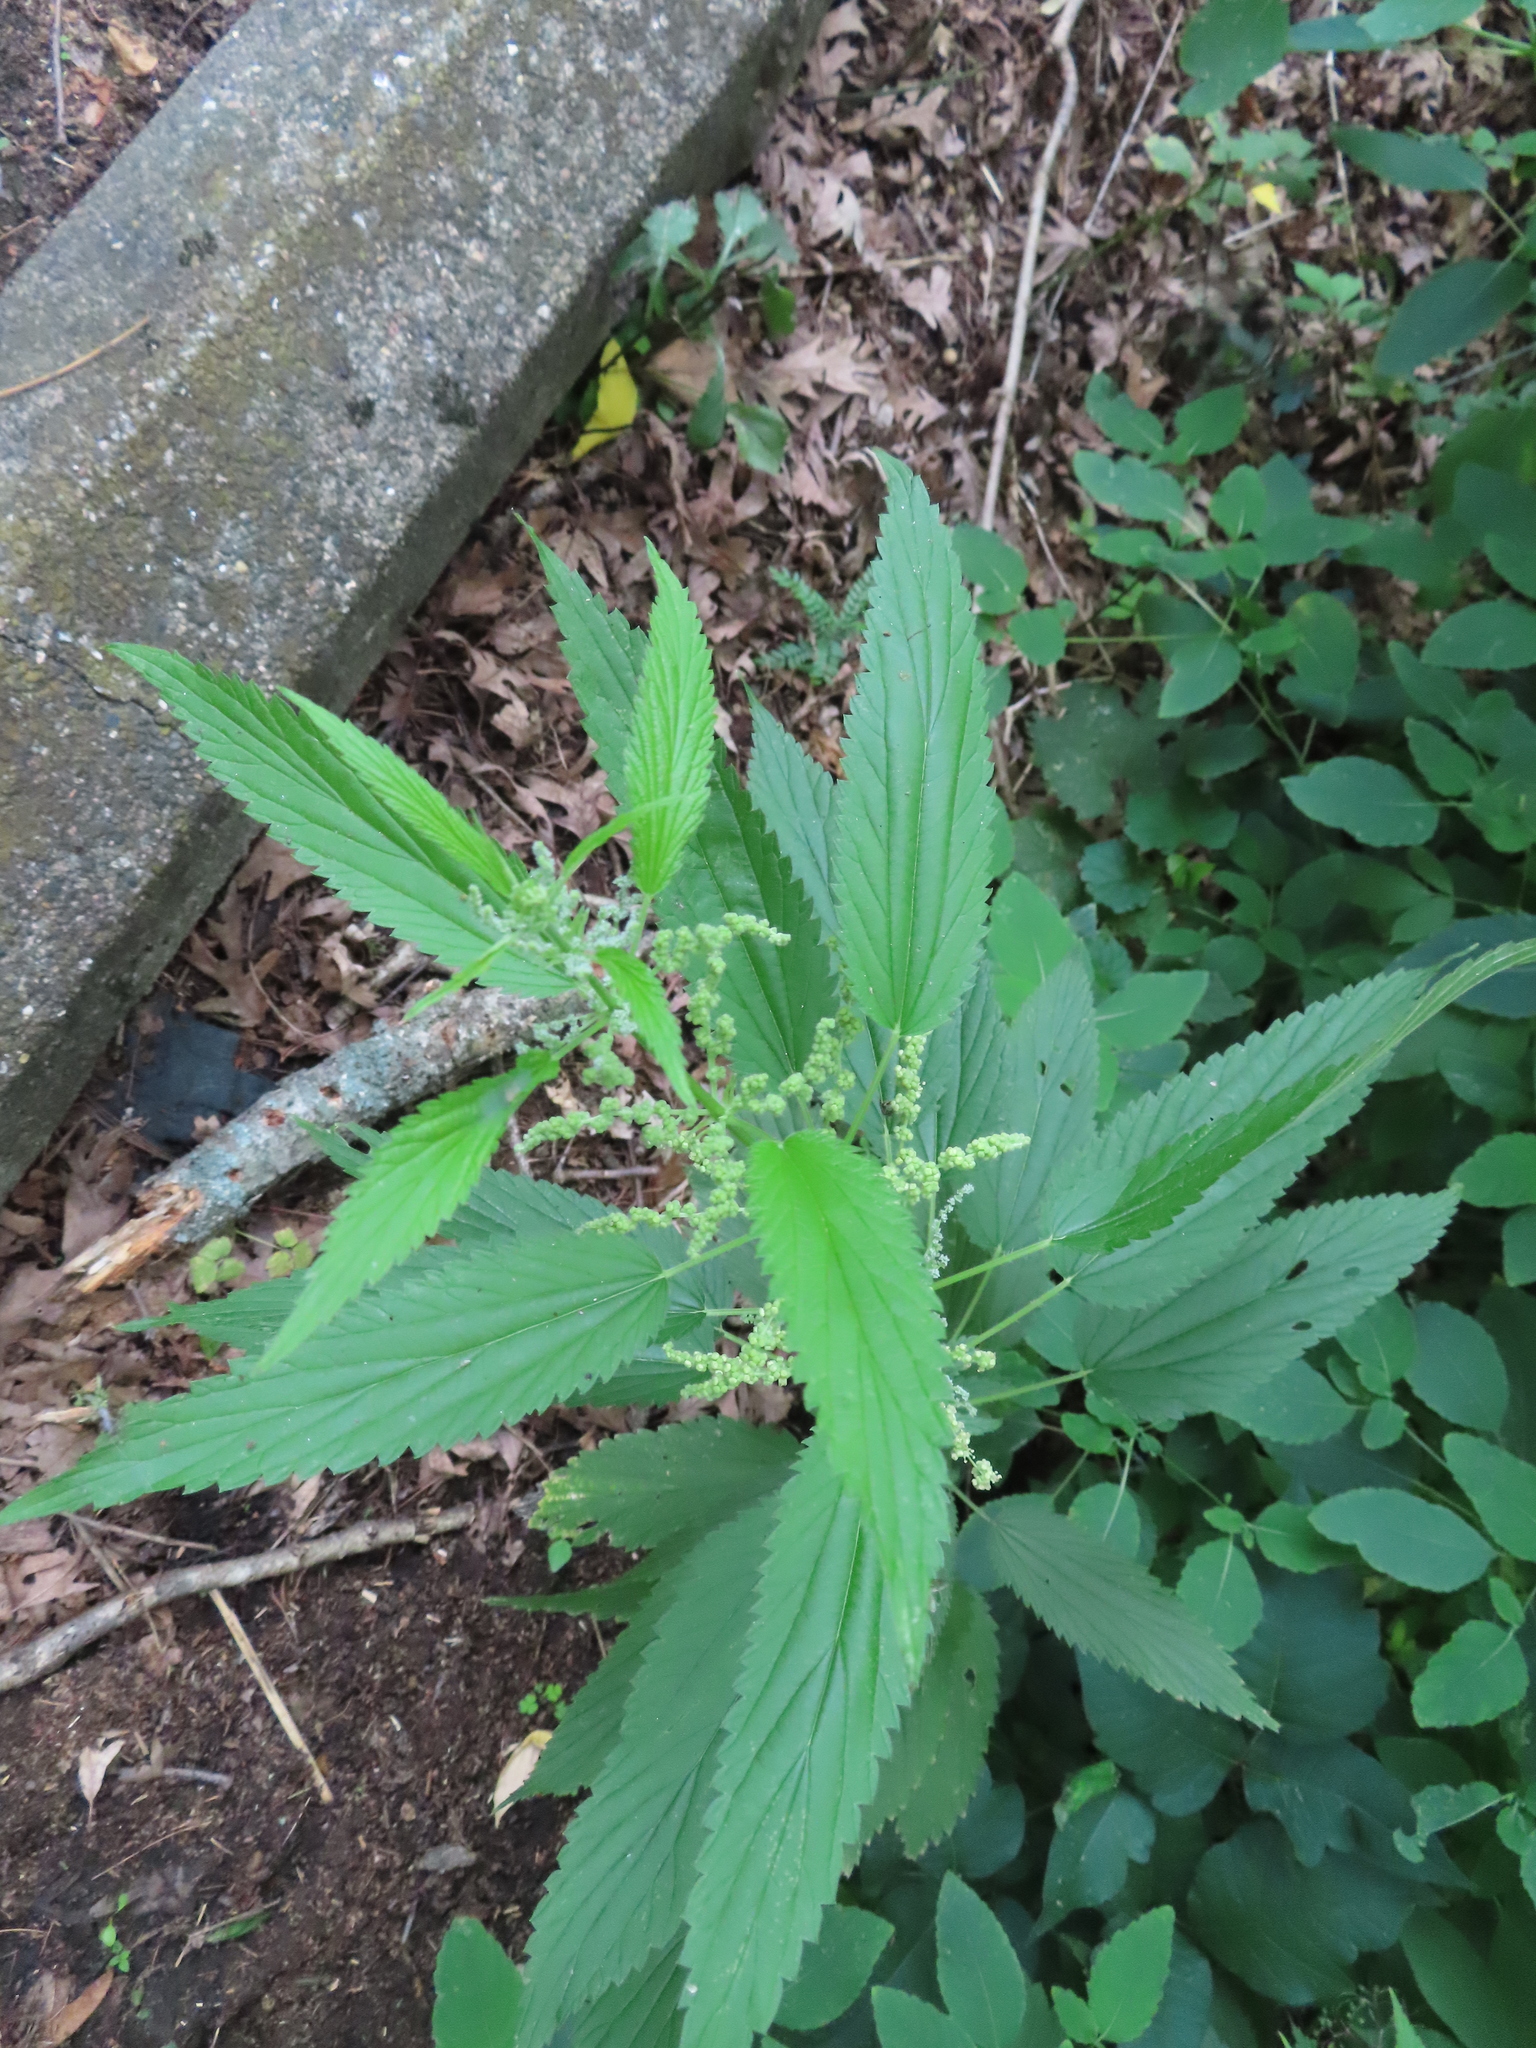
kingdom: Plantae
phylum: Tracheophyta
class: Magnoliopsida
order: Rosales
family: Urticaceae
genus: Urtica
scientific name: Urtica gracilis
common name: Slender stinging nettle
